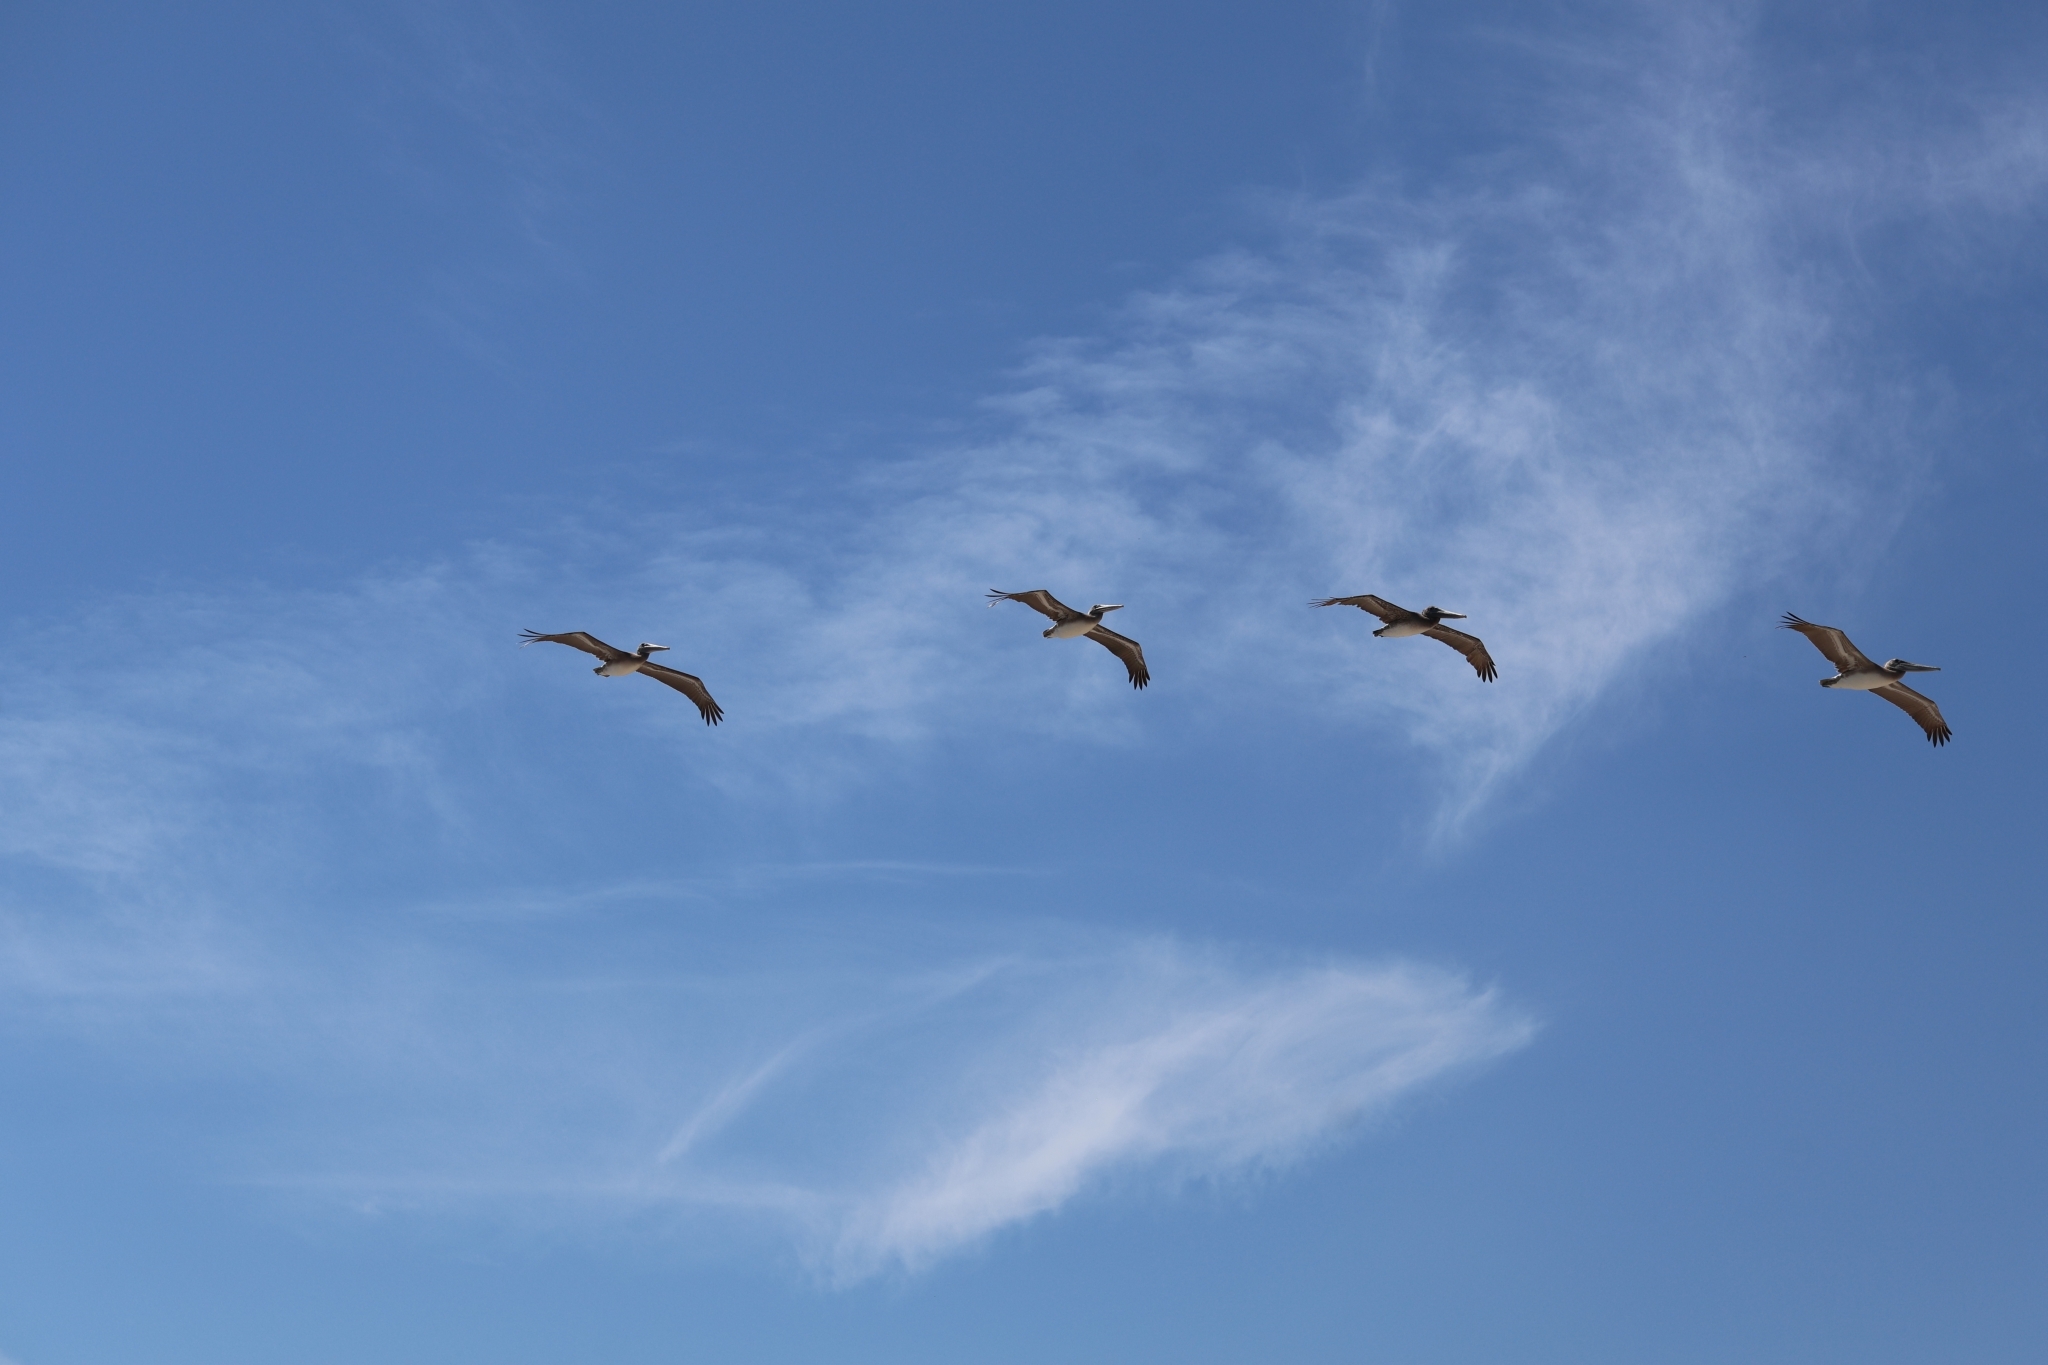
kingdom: Animalia
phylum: Chordata
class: Aves
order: Pelecaniformes
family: Pelecanidae
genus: Pelecanus
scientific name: Pelecanus occidentalis
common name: Brown pelican
